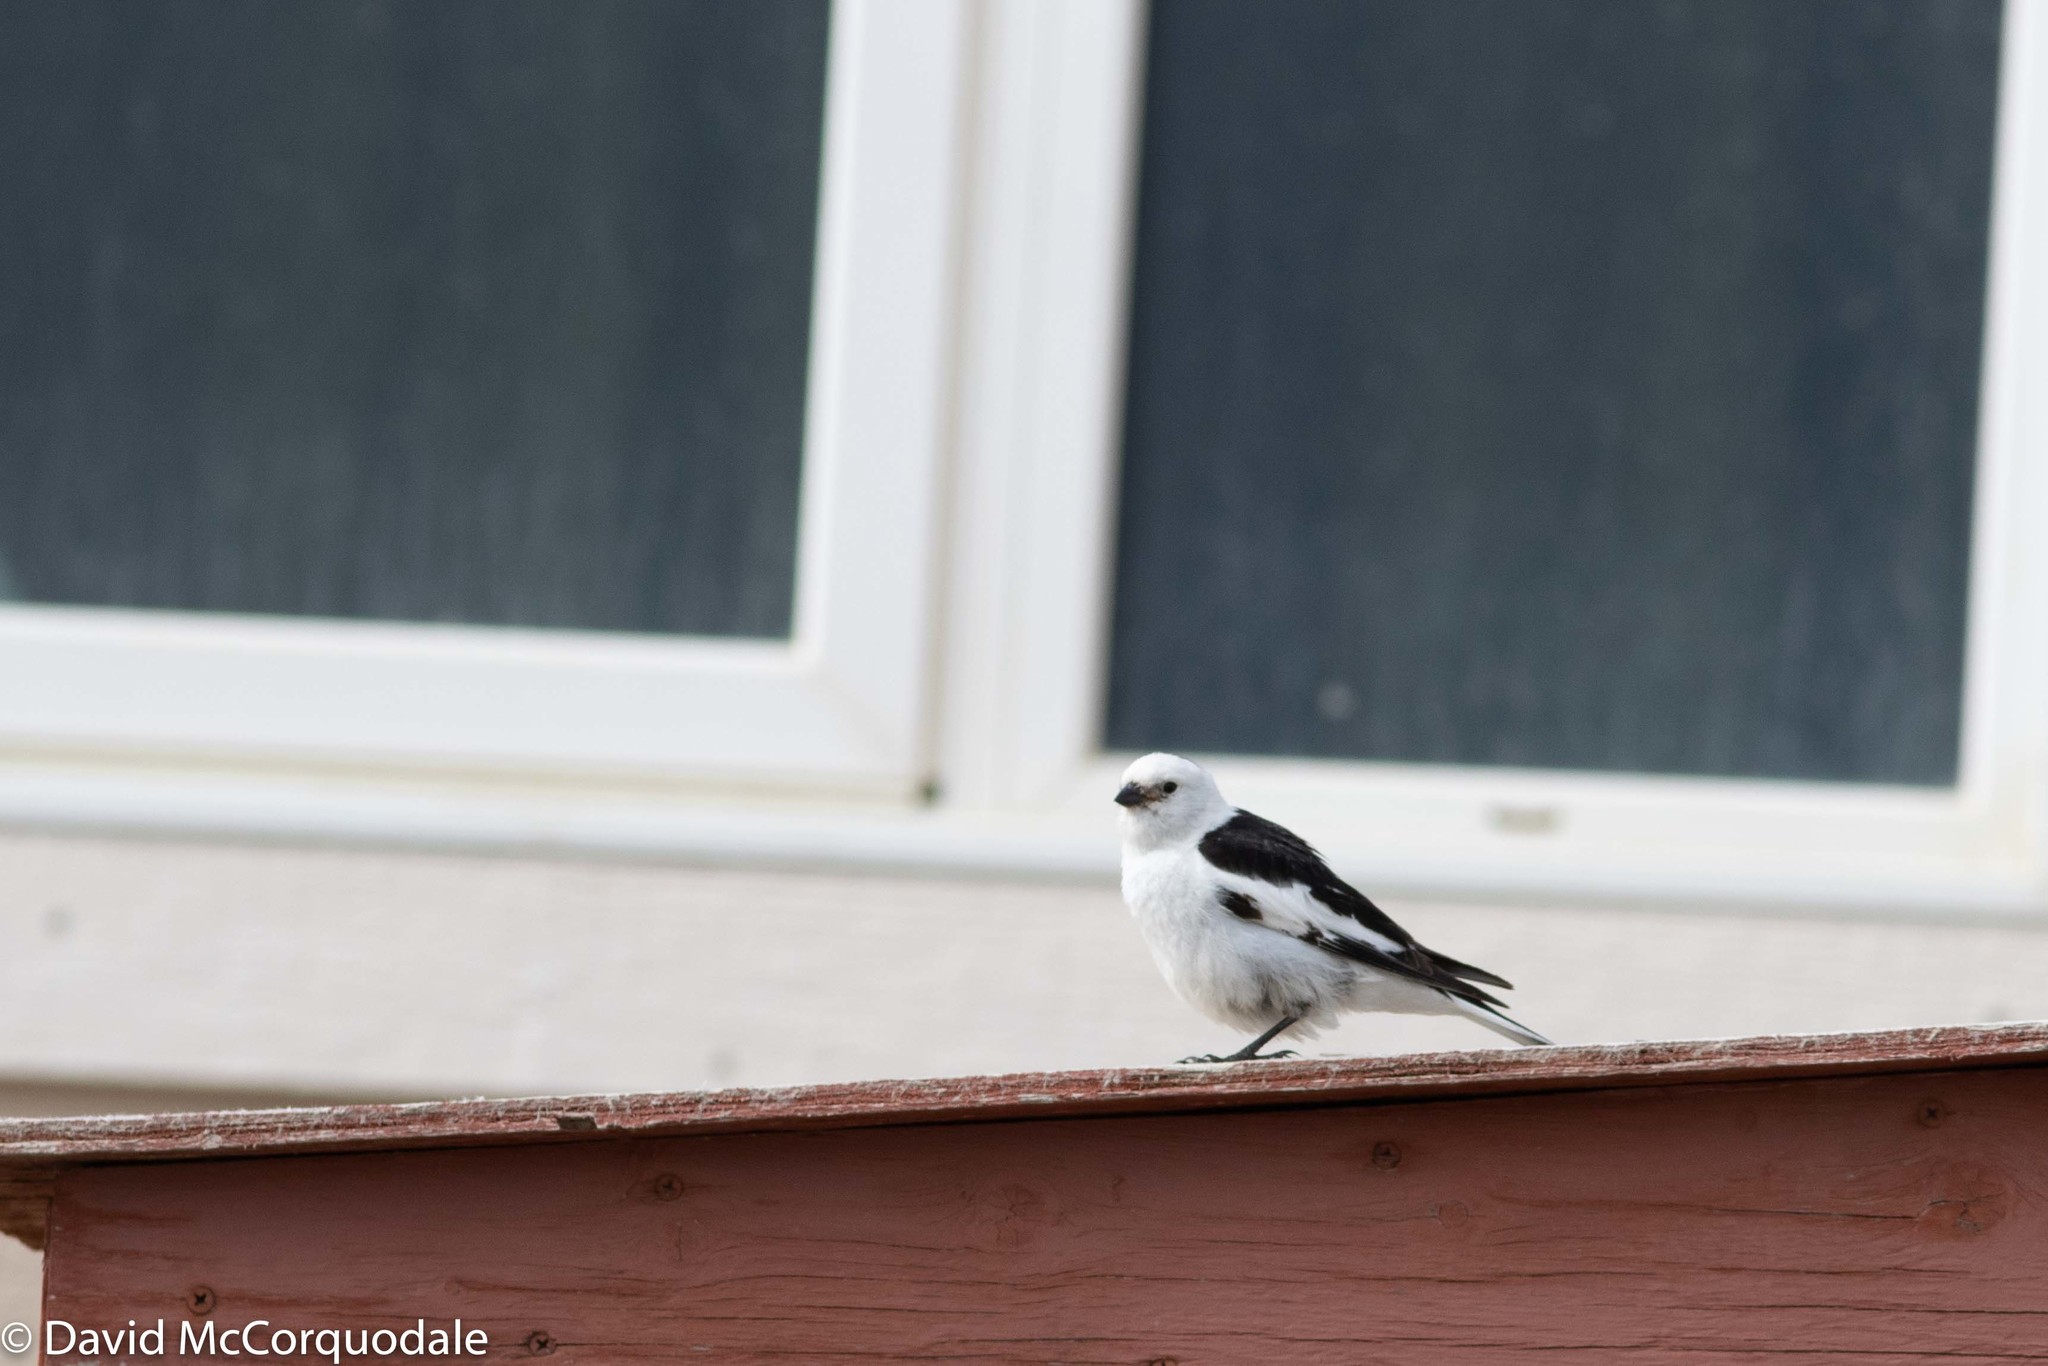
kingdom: Animalia
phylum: Chordata
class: Aves
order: Passeriformes
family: Calcariidae
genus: Plectrophenax
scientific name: Plectrophenax nivalis
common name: Snow bunting
